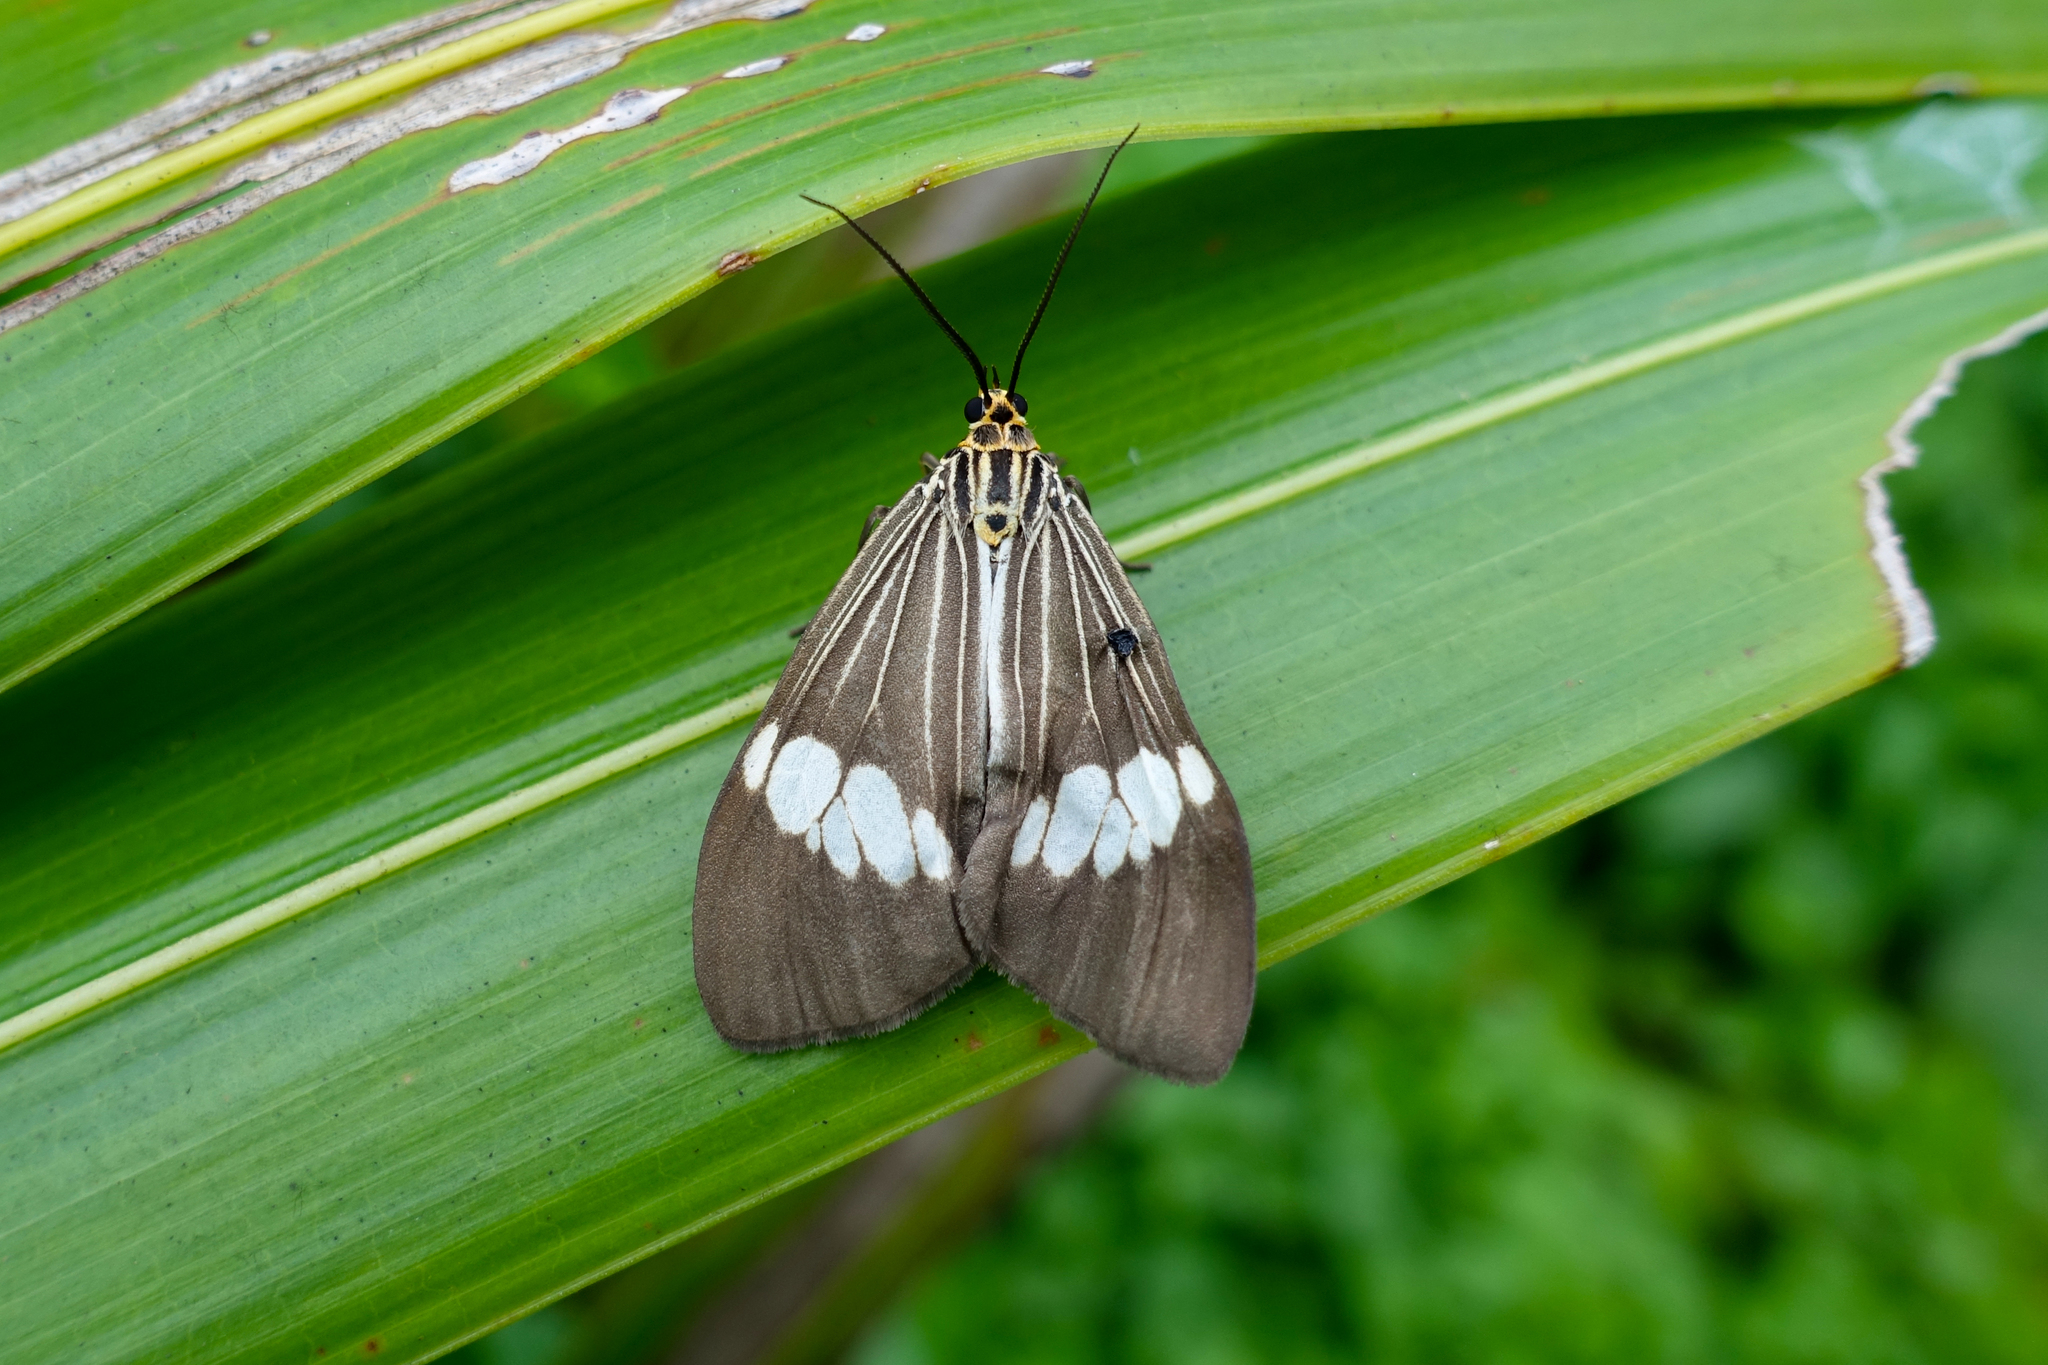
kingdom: Animalia
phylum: Arthropoda
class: Insecta
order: Lepidoptera
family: Erebidae
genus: Nyctemera
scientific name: Nyctemera baulus
